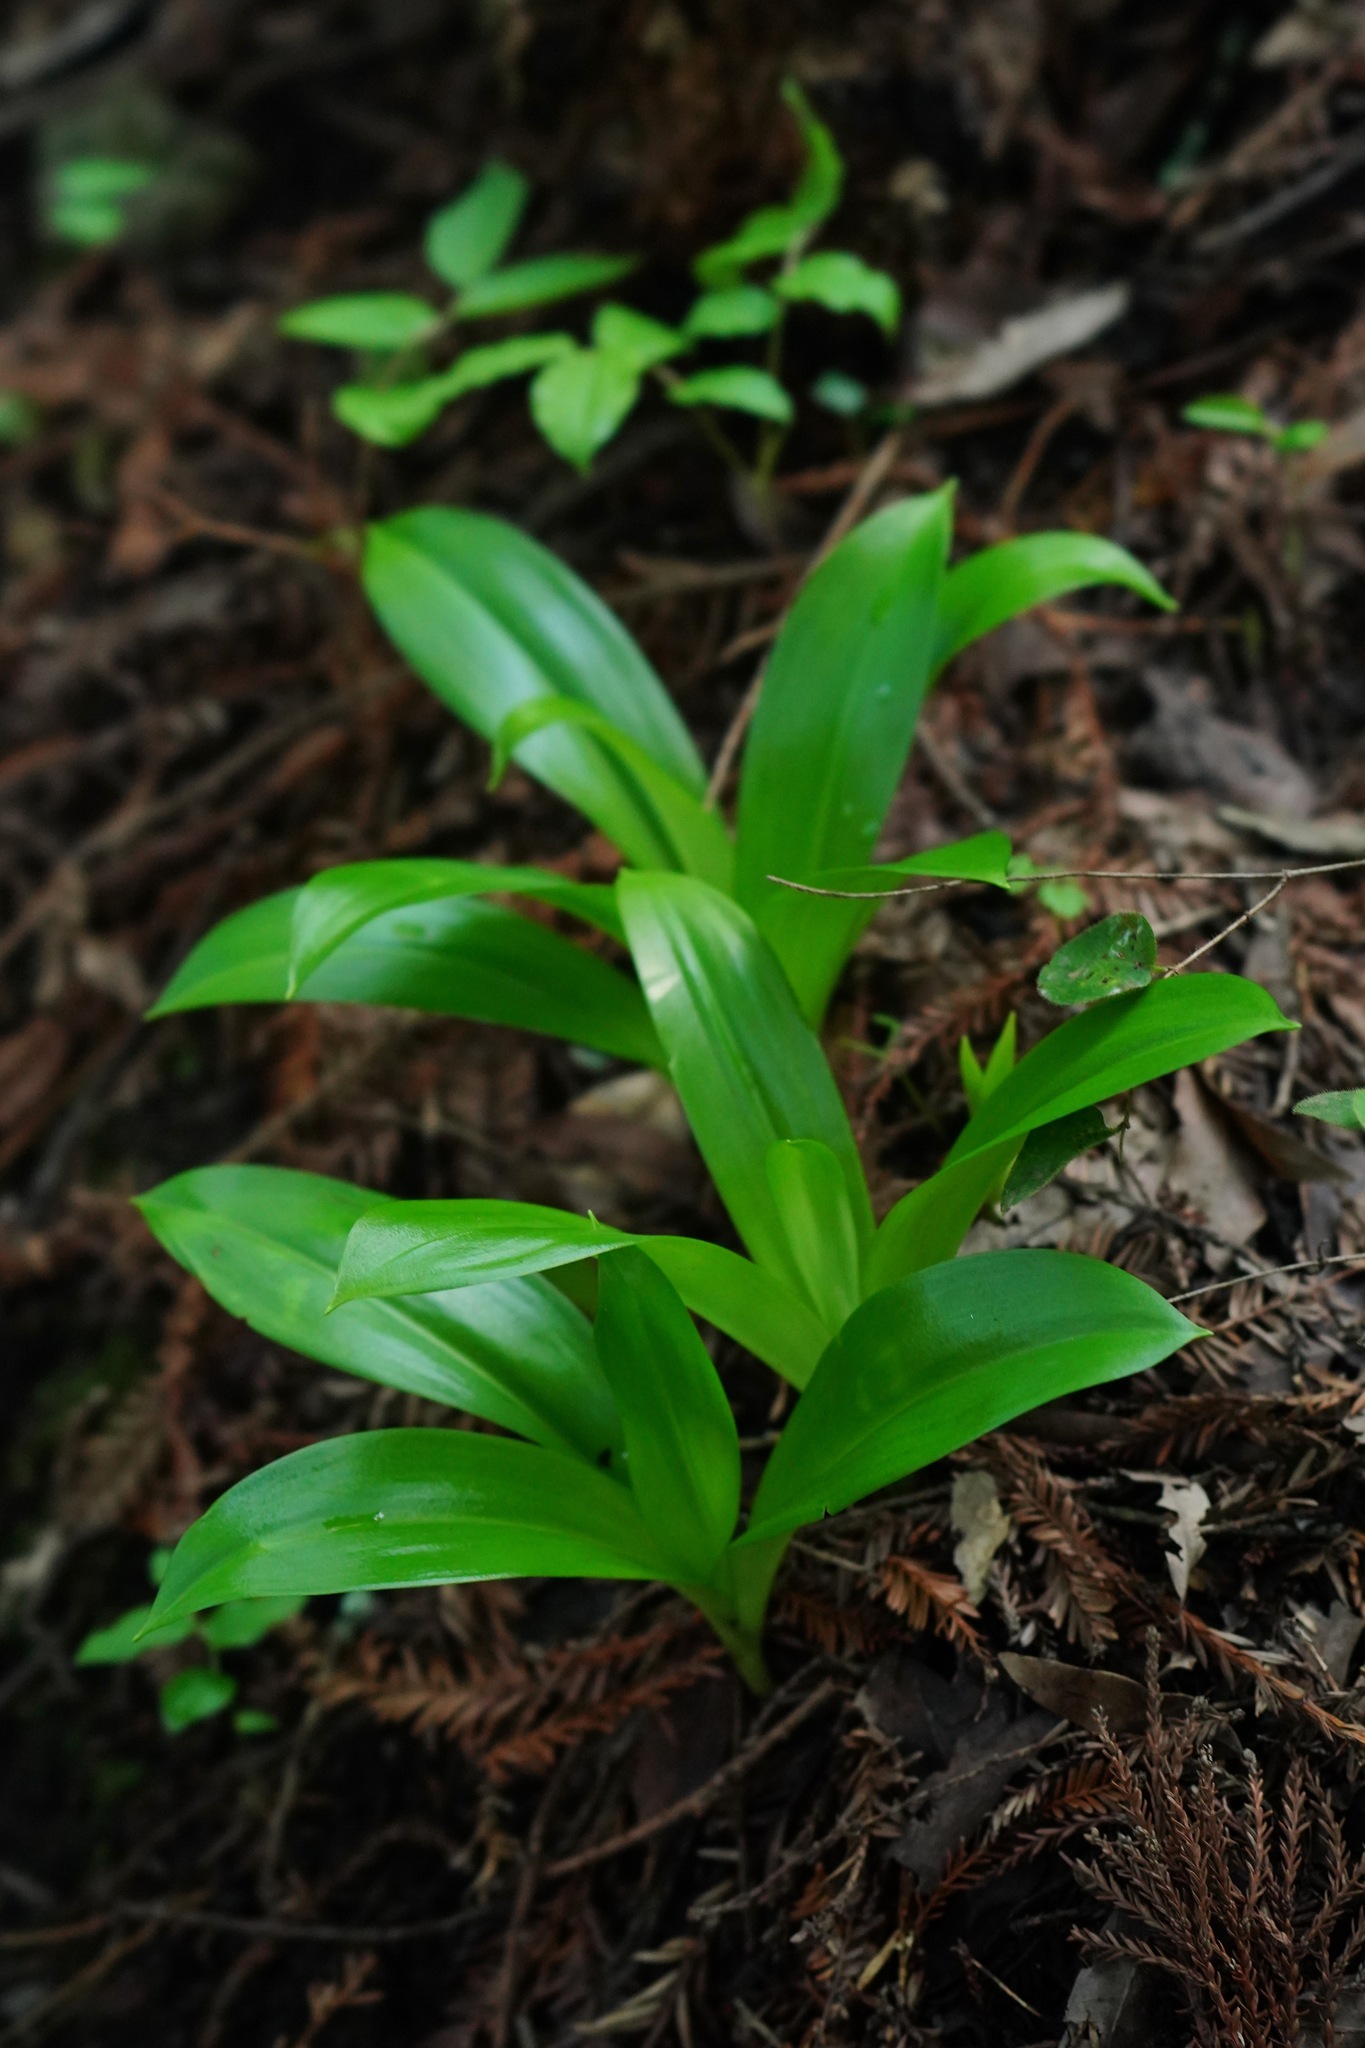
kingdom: Plantae
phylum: Tracheophyta
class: Liliopsida
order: Liliales
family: Liliaceae
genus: Clintonia
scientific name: Clintonia andrewsiana
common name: Red clintonia
